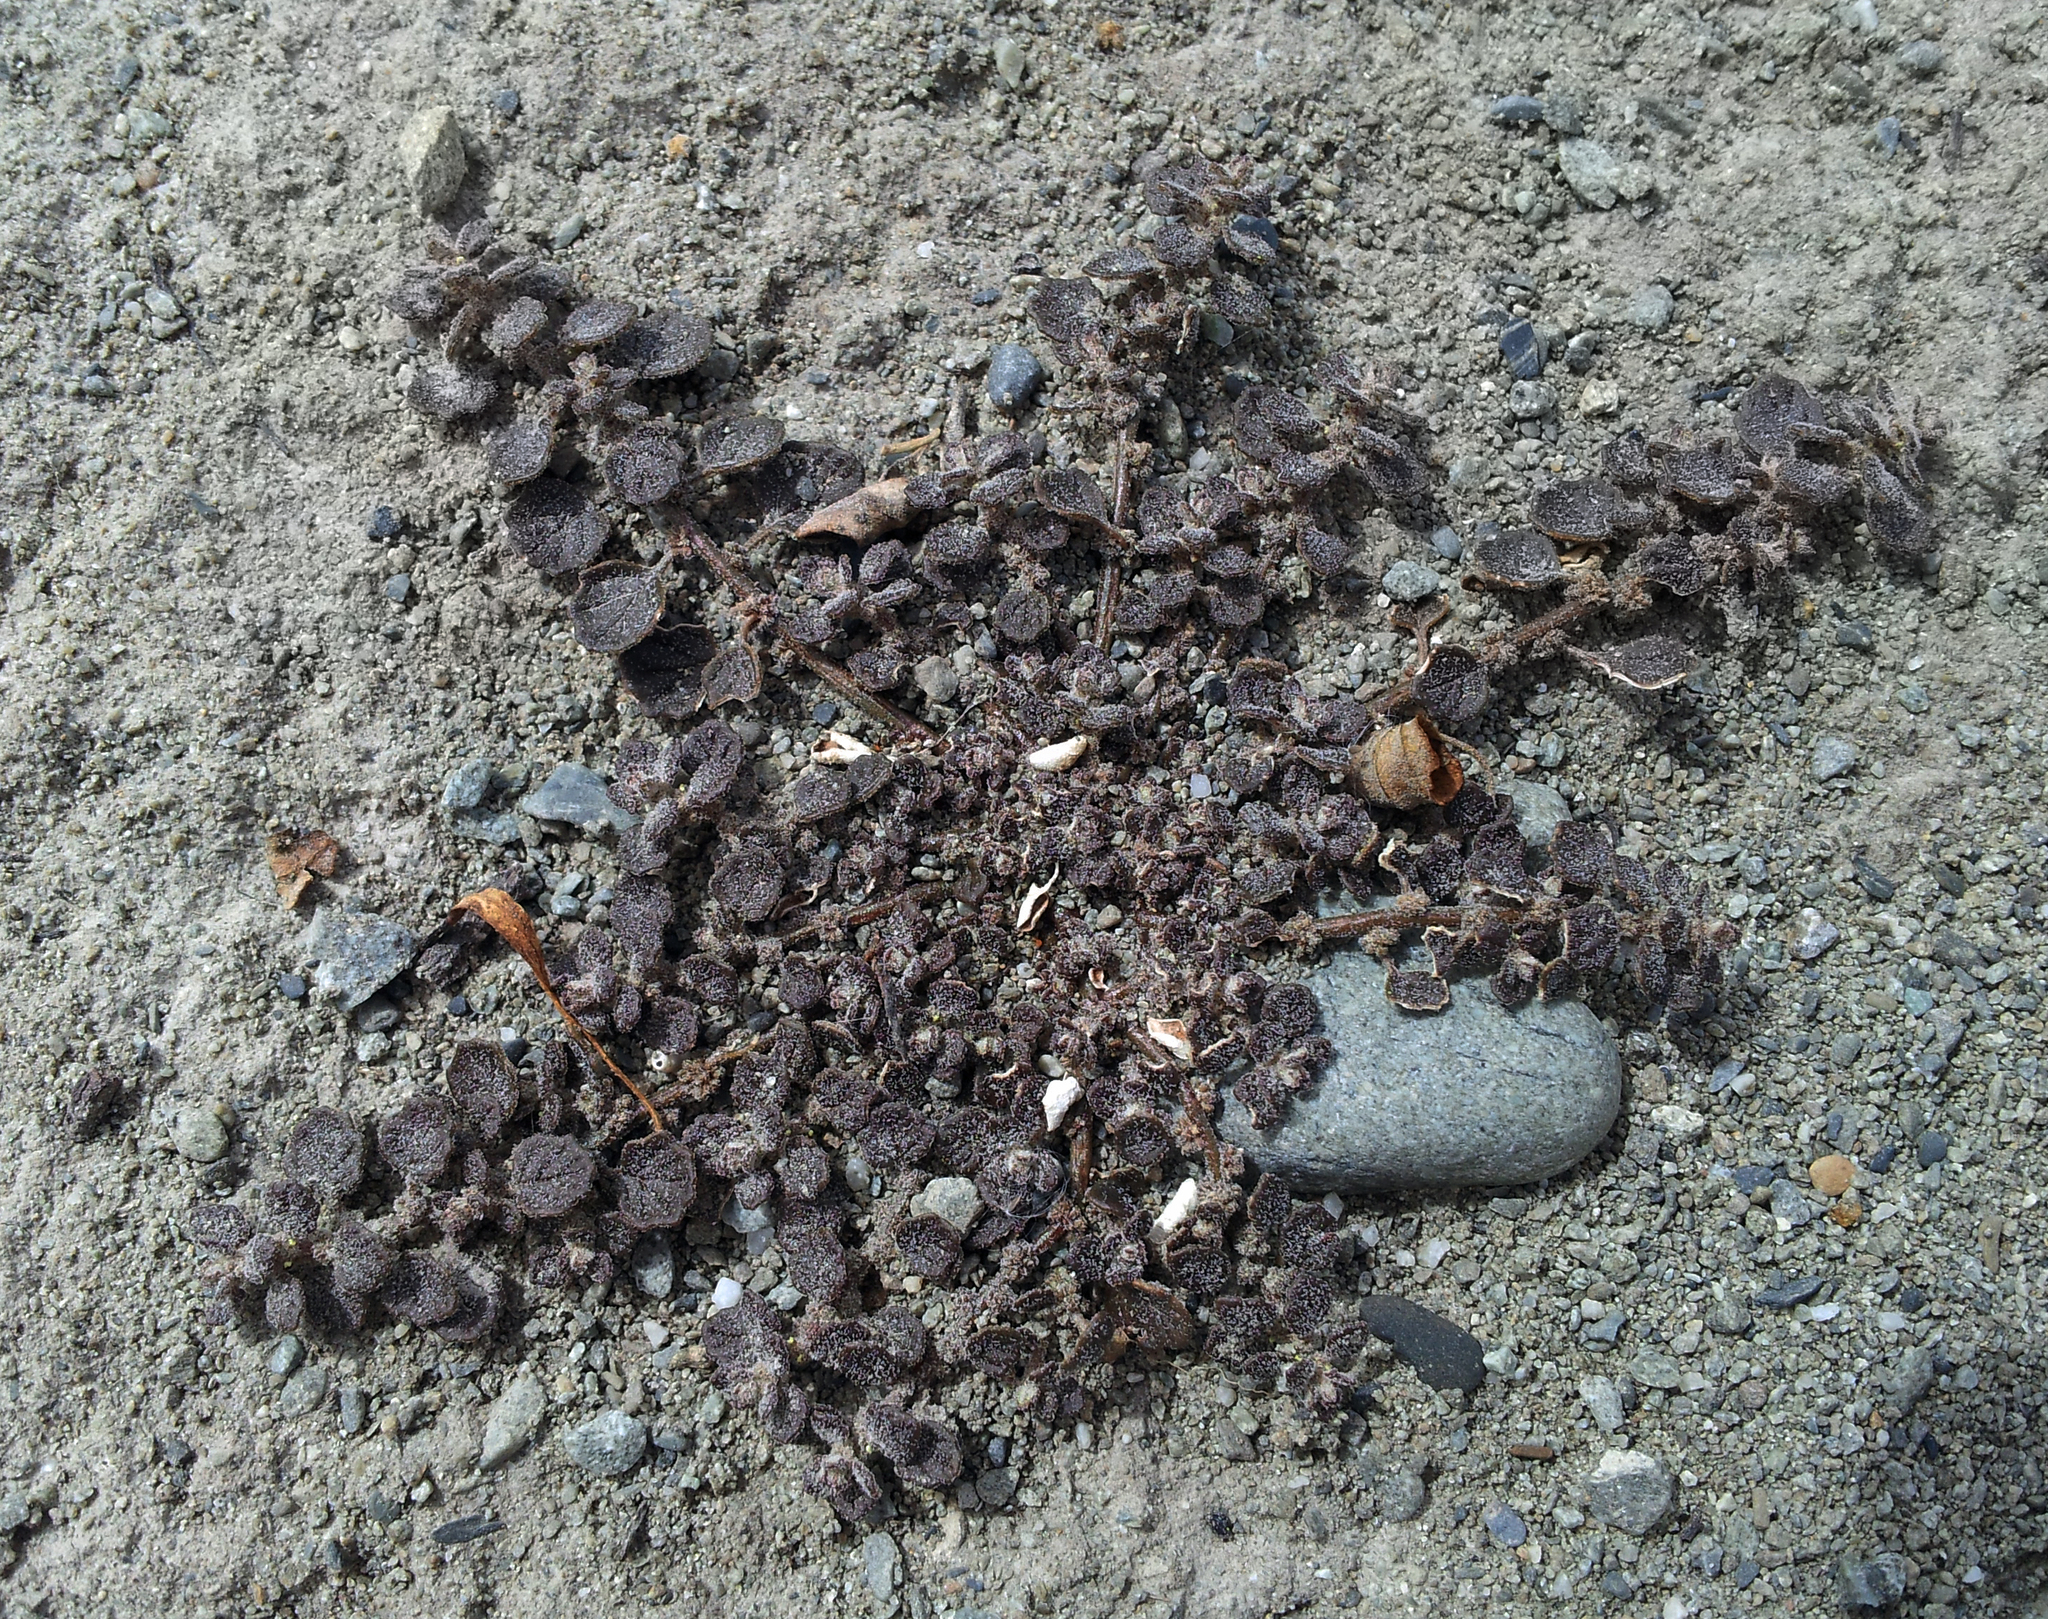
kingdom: Plantae
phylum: Tracheophyta
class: Magnoliopsida
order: Caryophyllales
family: Amaranthaceae
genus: Dysphania
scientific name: Dysphania pusilla
